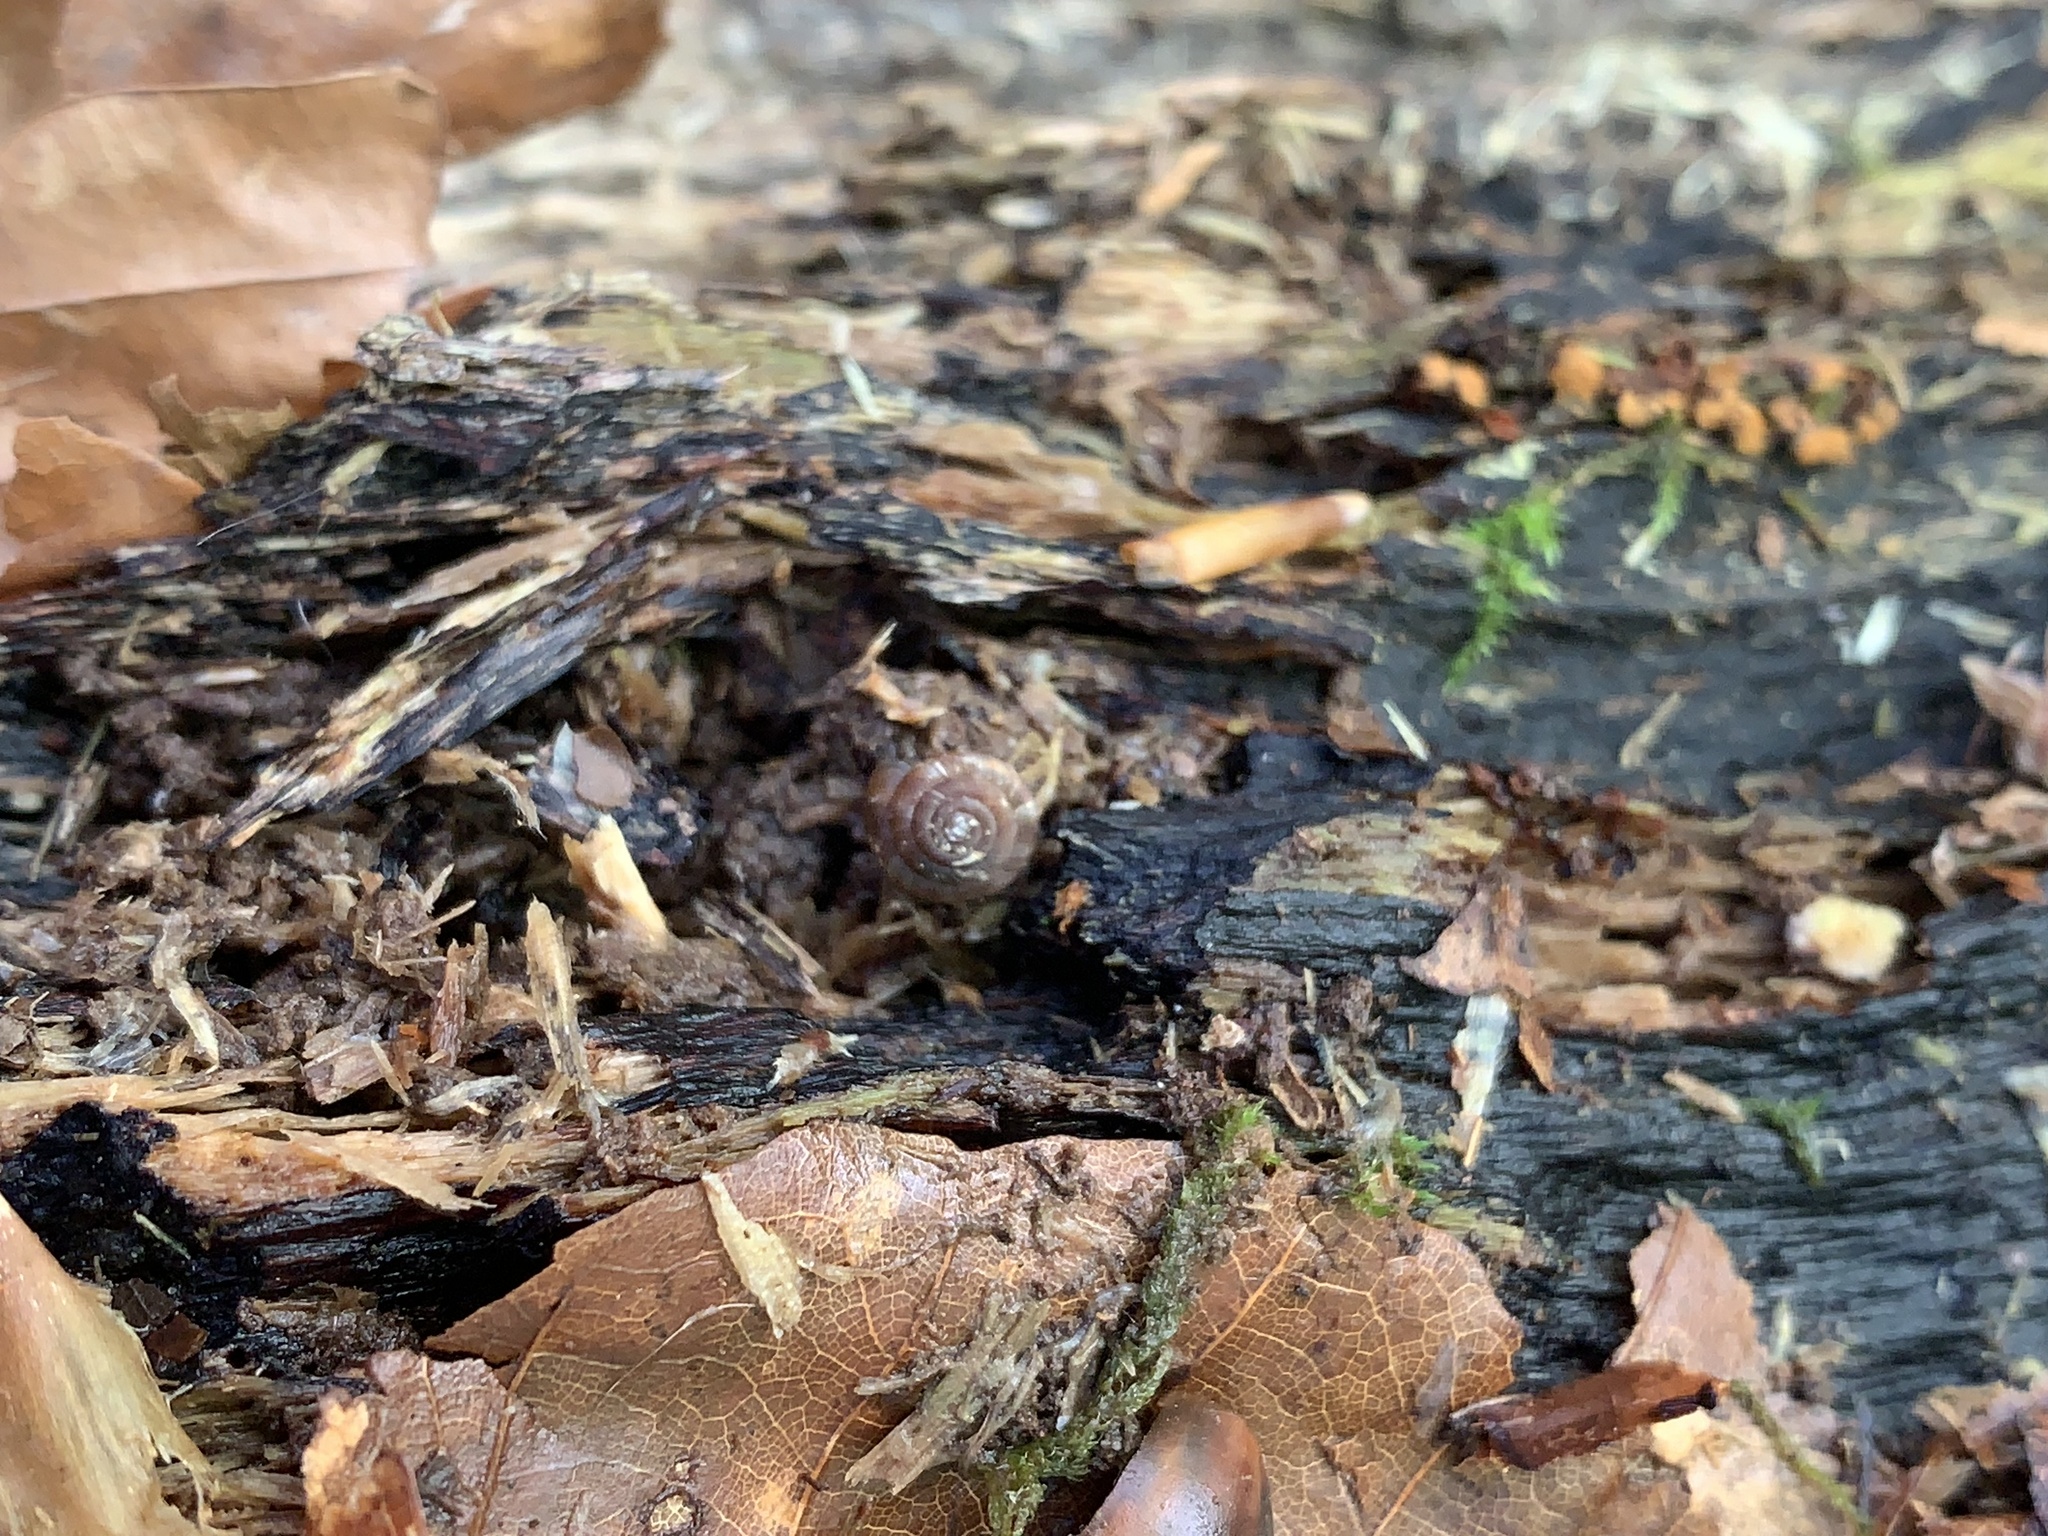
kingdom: Animalia
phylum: Mollusca
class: Gastropoda
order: Stylommatophora
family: Discidae
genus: Discus
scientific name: Discus rotundatus
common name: Rounded snail
